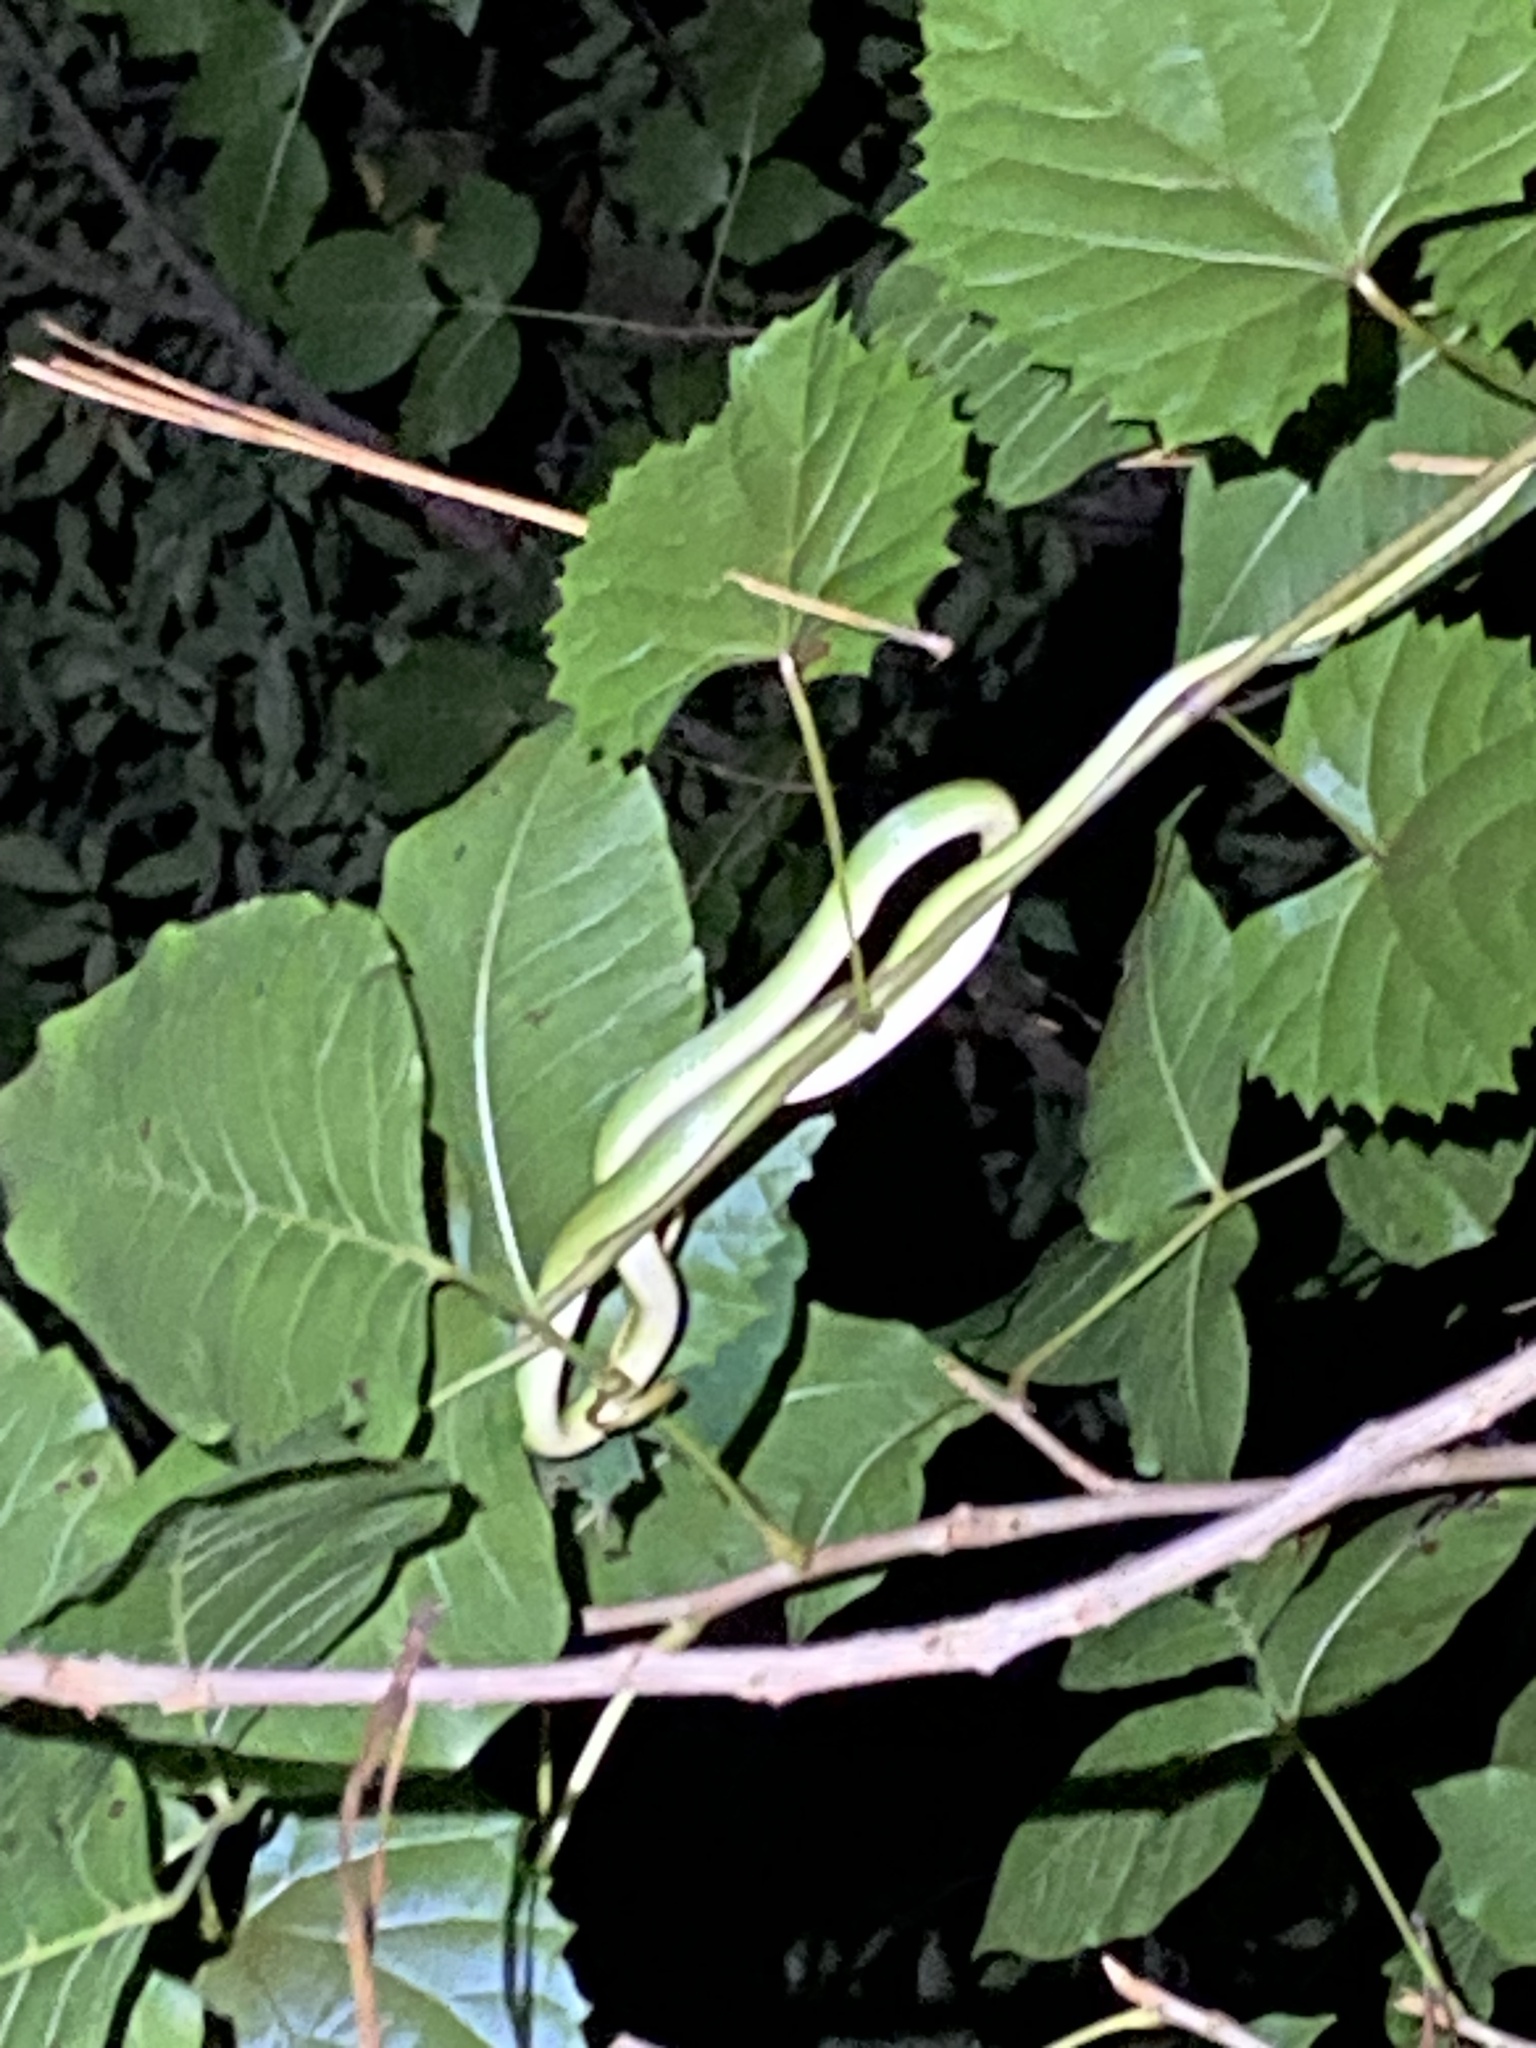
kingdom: Animalia
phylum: Chordata
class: Squamata
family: Colubridae
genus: Opheodrys
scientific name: Opheodrys aestivus
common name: Rough greensnake
